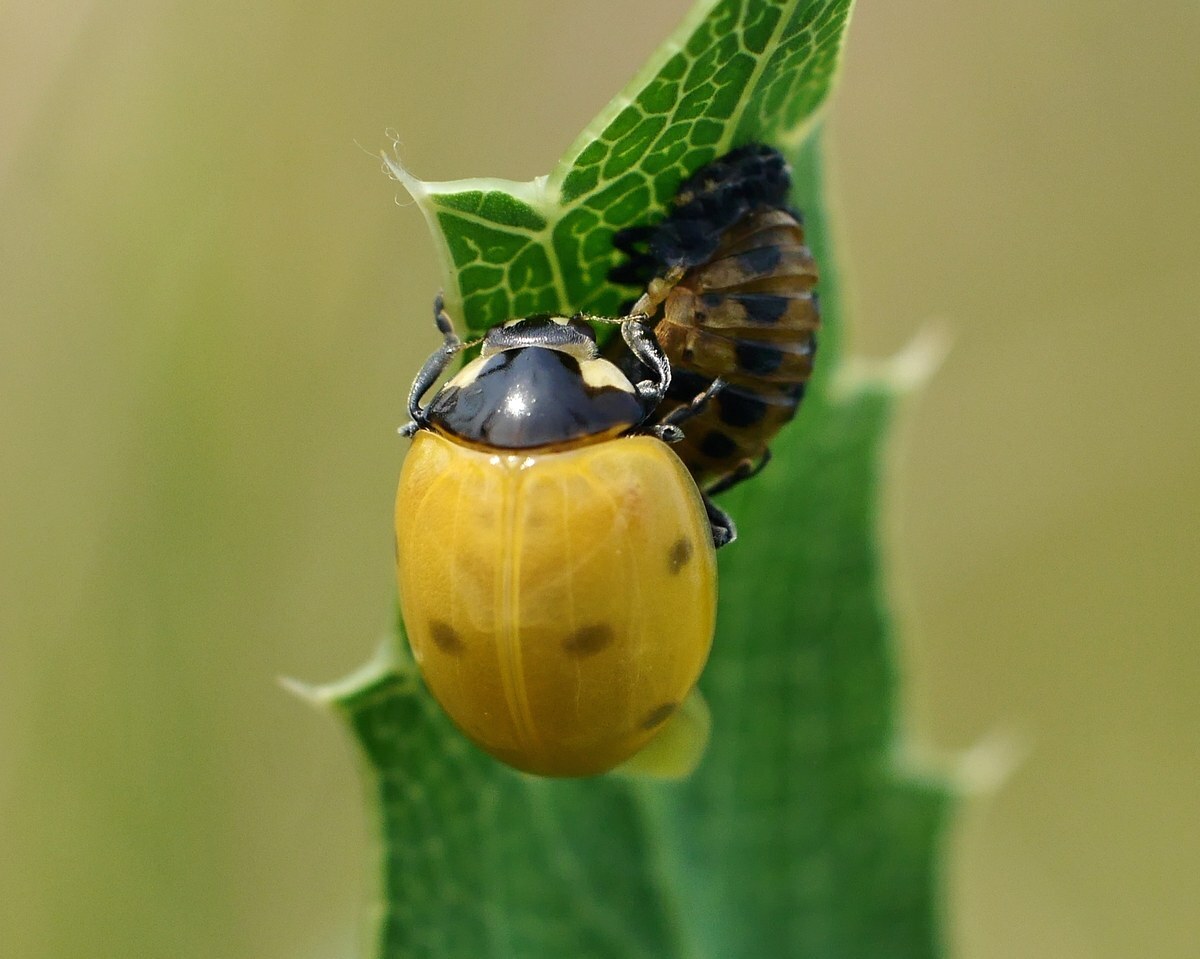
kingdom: Animalia
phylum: Arthropoda
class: Insecta
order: Coleoptera
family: Coccinellidae
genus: Coccinella
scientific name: Coccinella septempunctata
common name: Sevenspotted lady beetle
